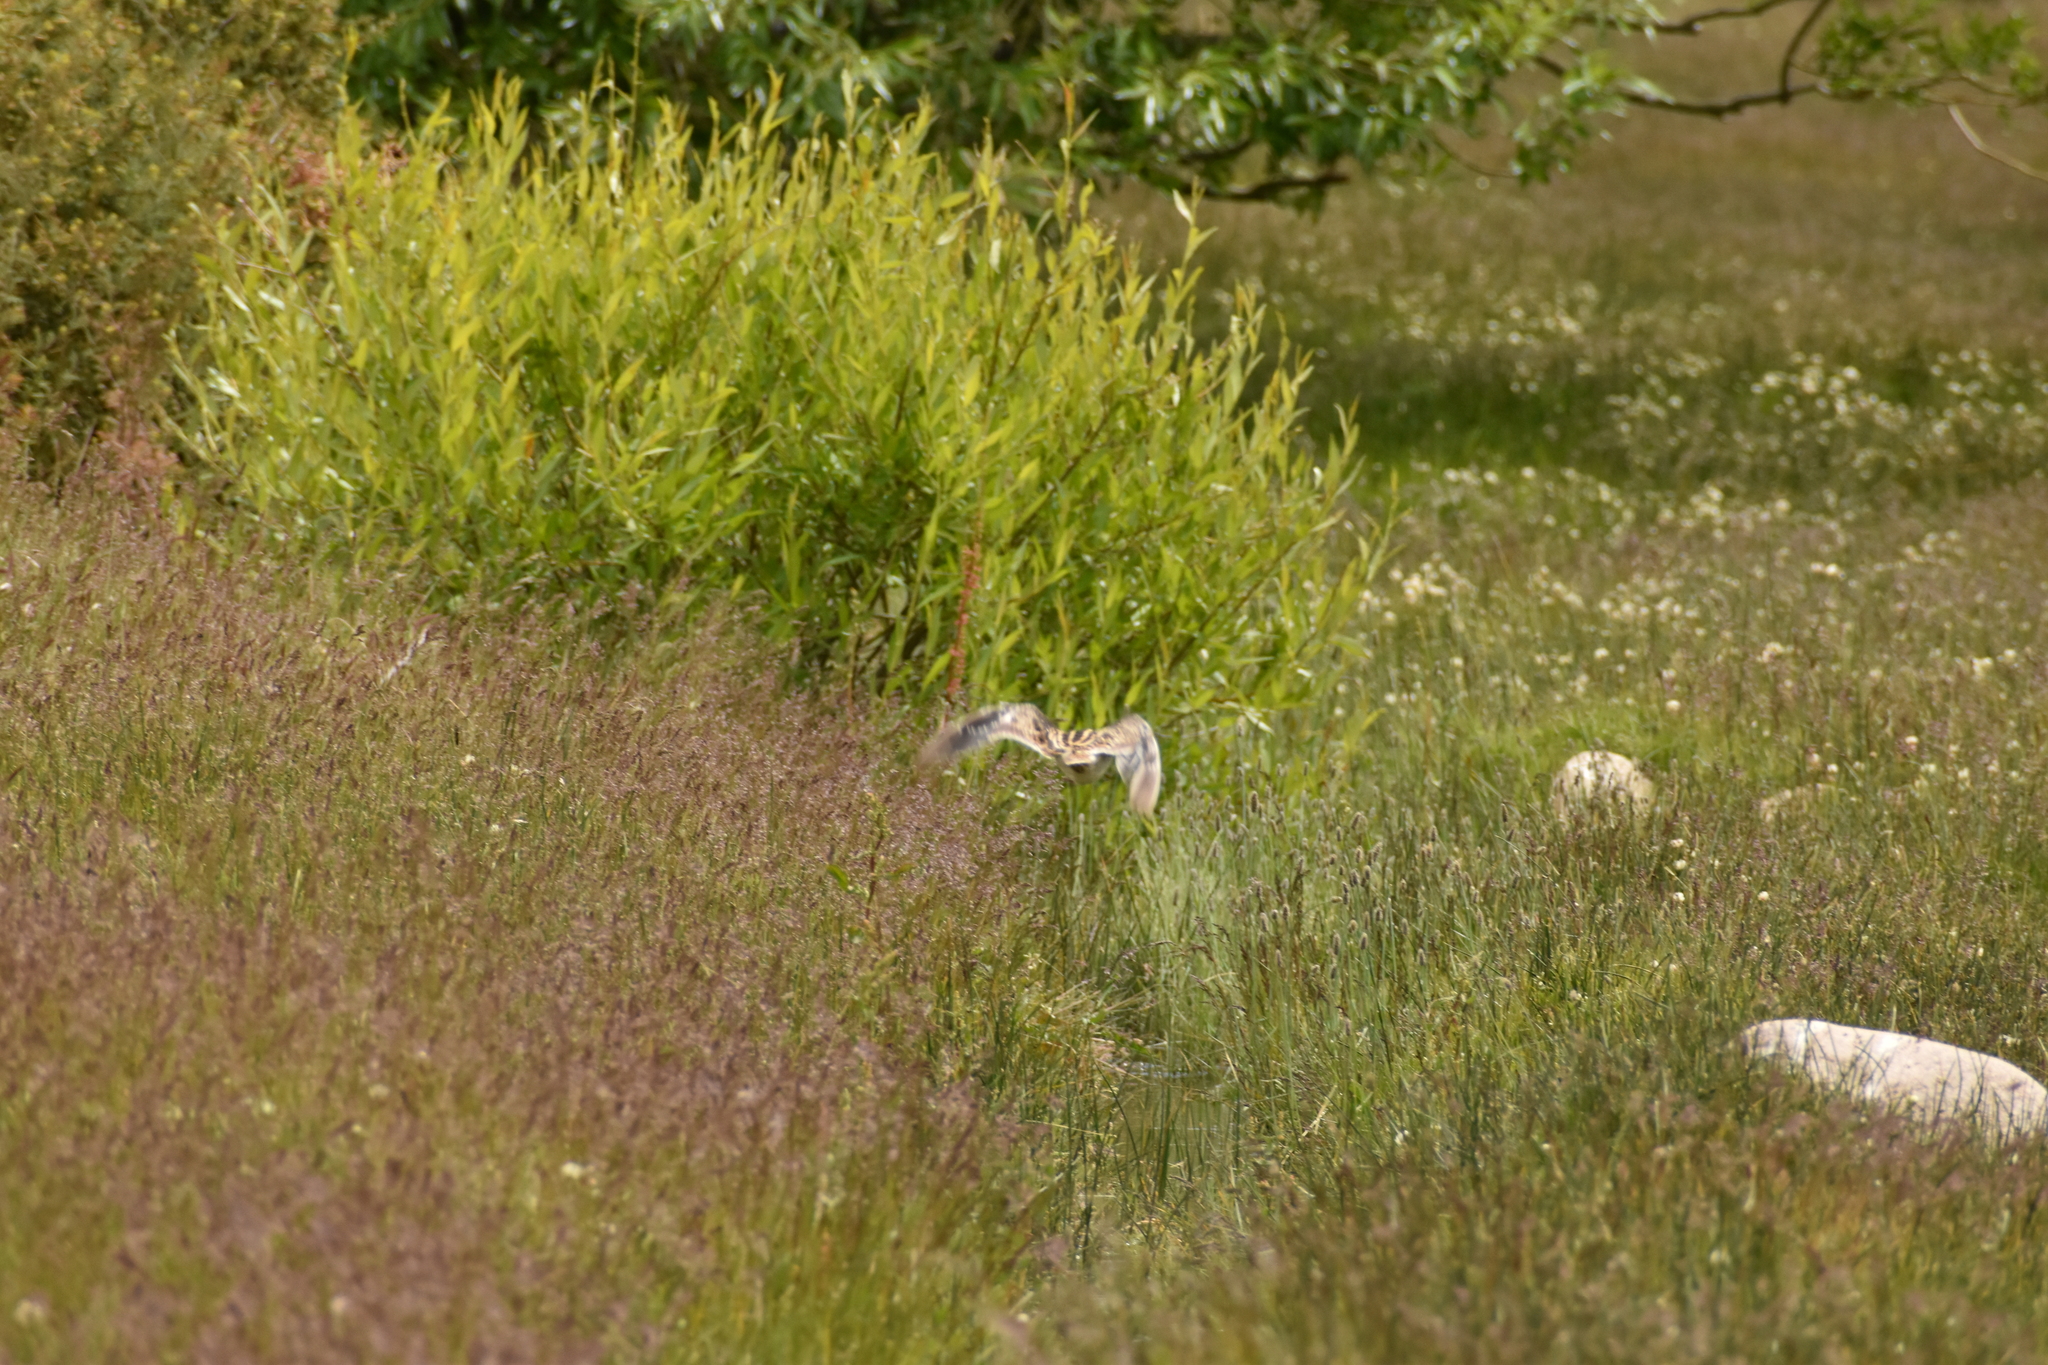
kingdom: Animalia
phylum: Chordata
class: Aves
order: Charadriiformes
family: Scolopacidae
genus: Gallinago
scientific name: Gallinago magellanica
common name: Magellanic snipe
